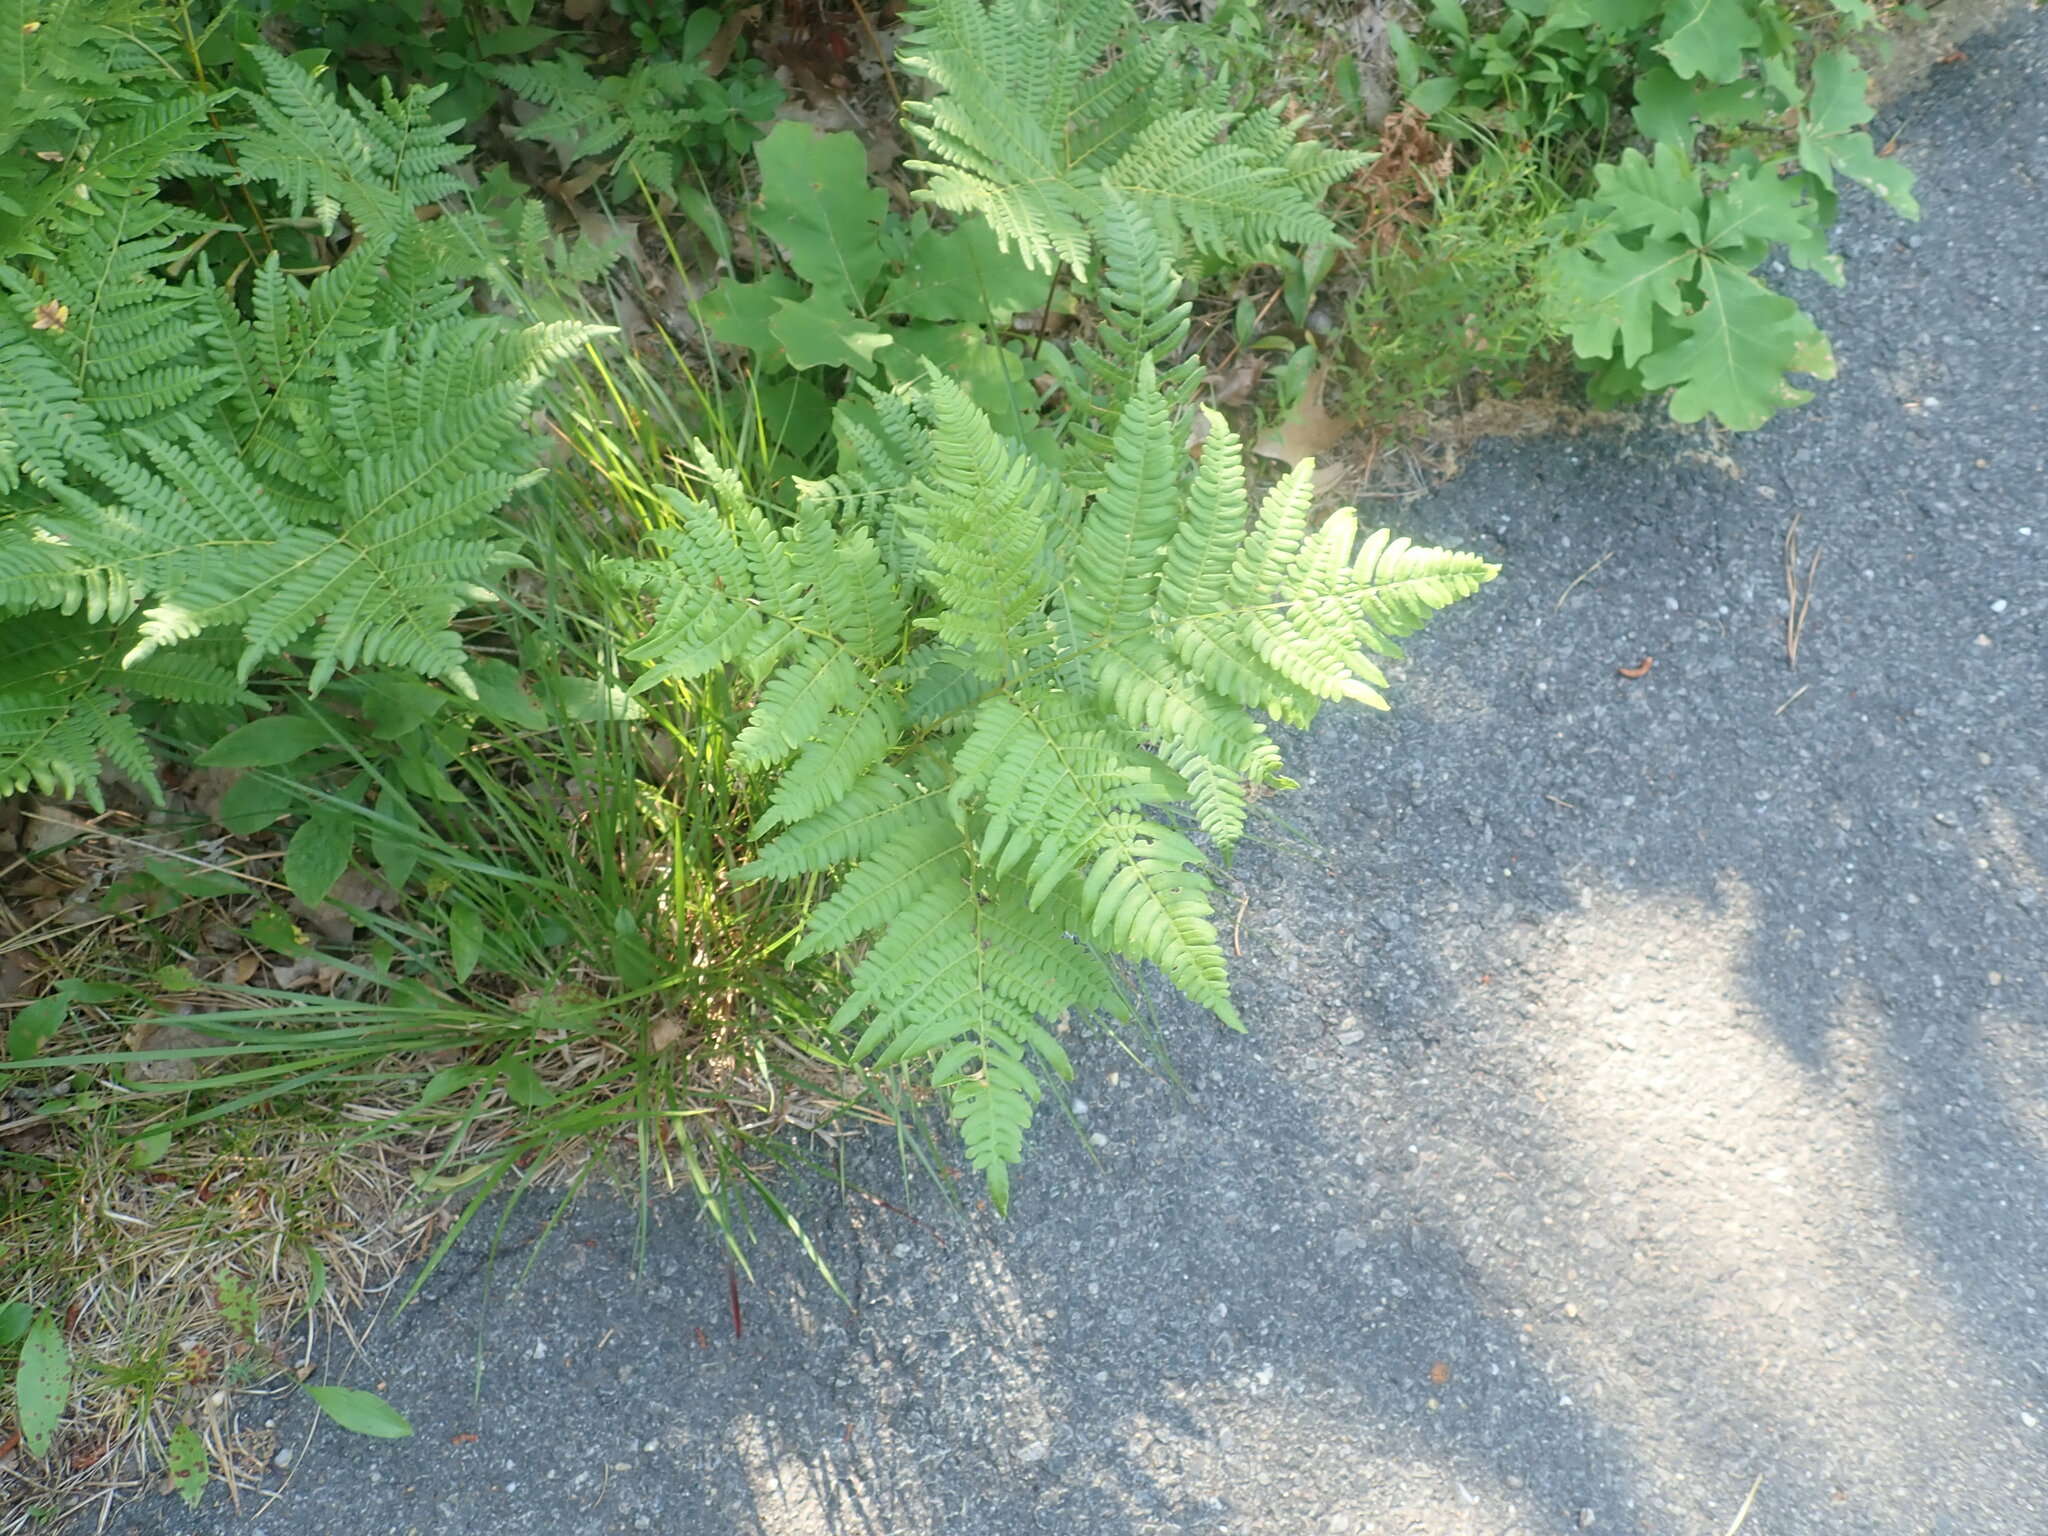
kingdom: Plantae
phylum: Tracheophyta
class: Polypodiopsida
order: Polypodiales
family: Dennstaedtiaceae
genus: Pteridium
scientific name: Pteridium aquilinum
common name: Bracken
